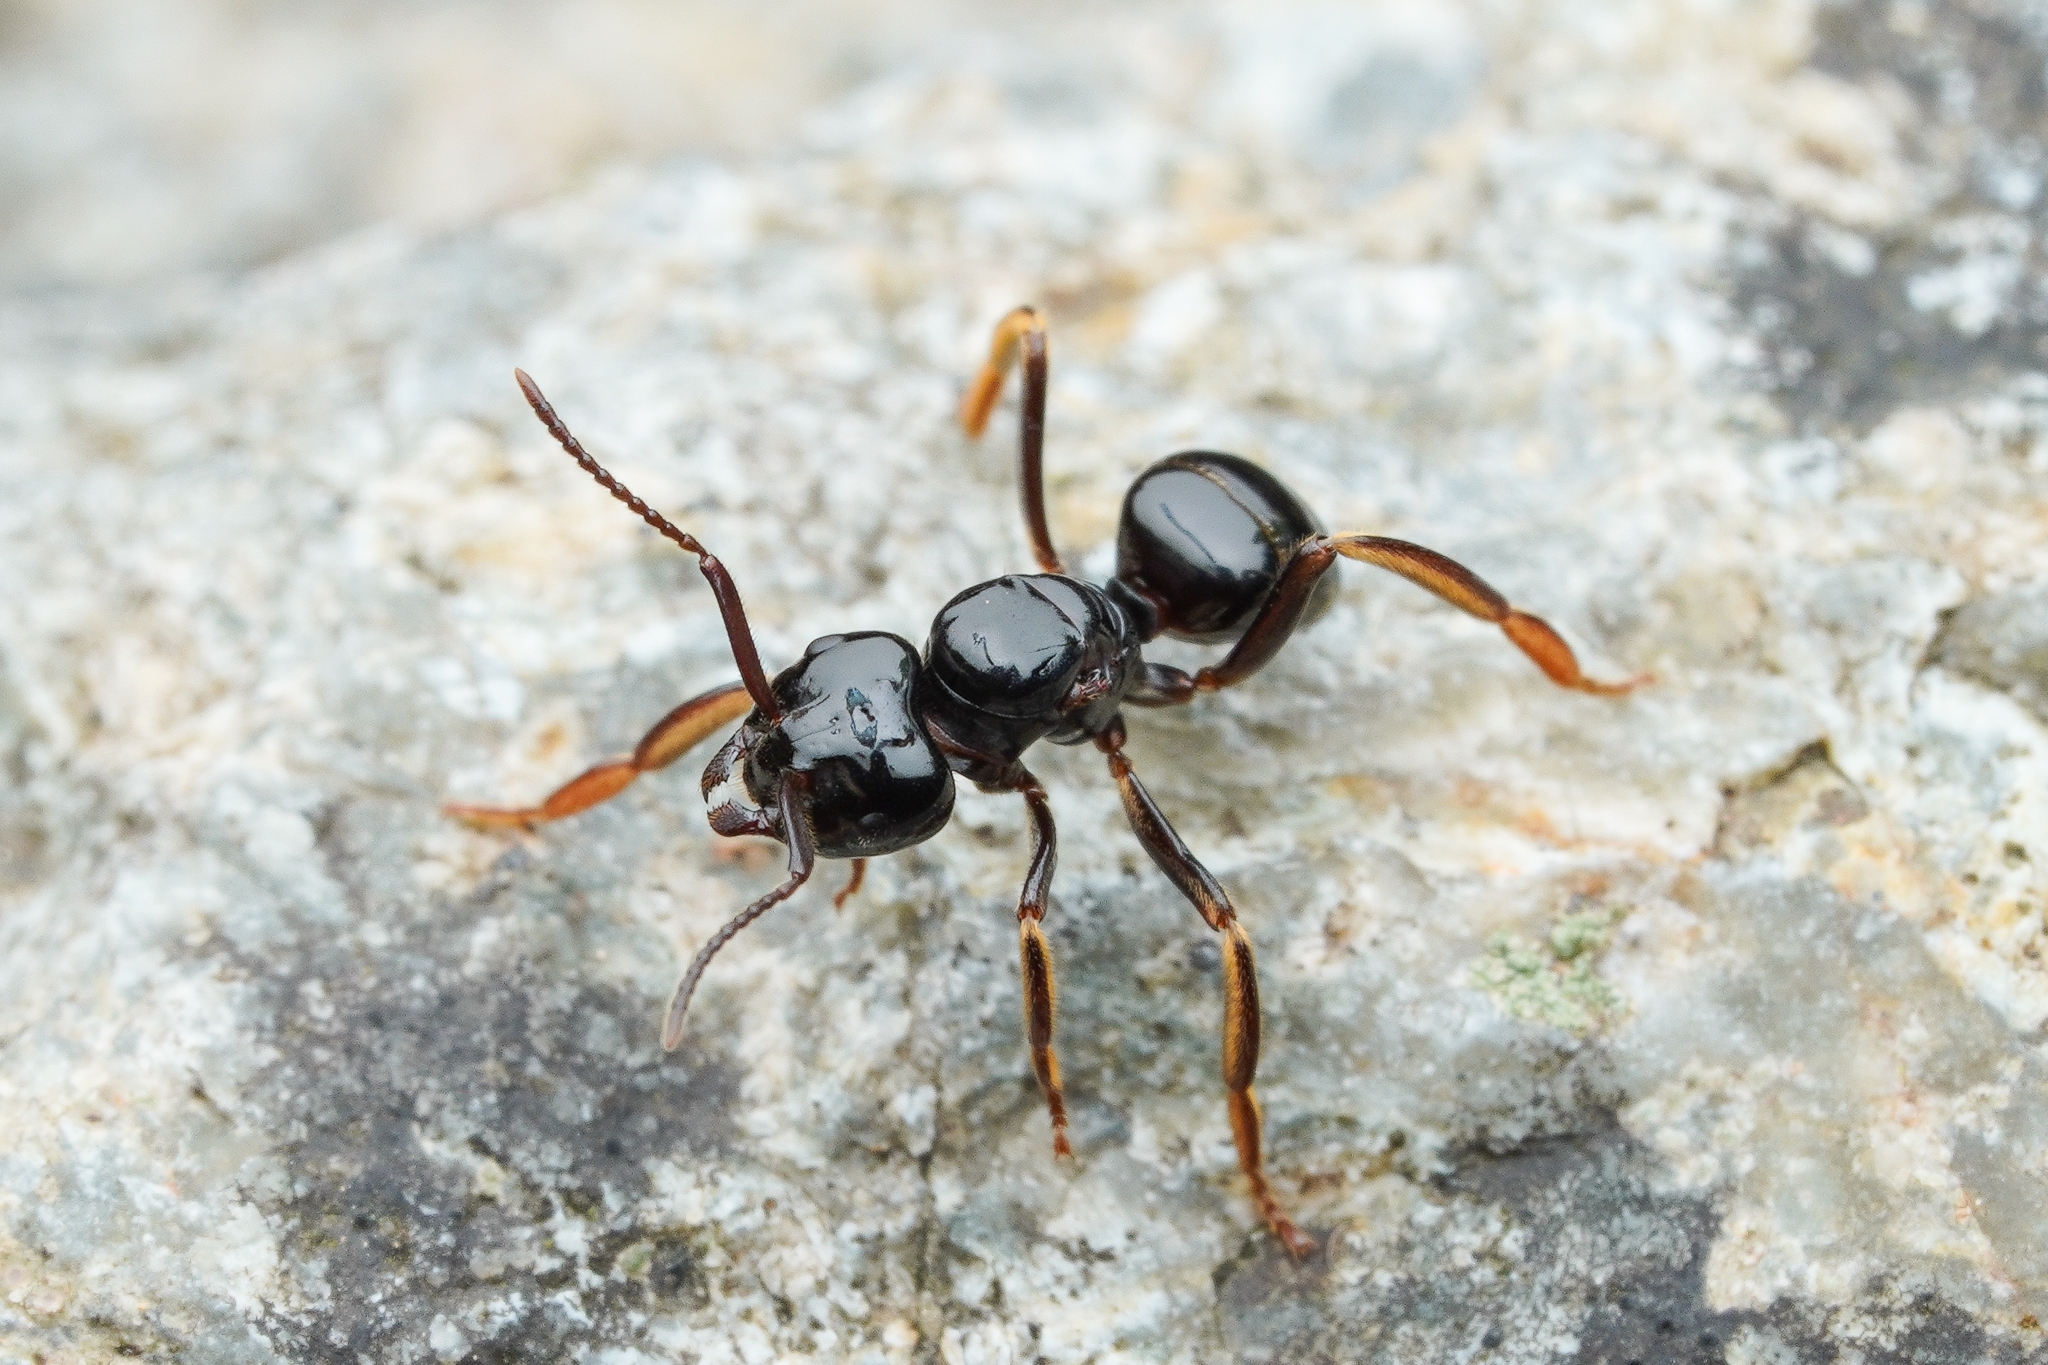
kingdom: Animalia
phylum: Arthropoda
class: Insecta
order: Hymenoptera
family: Formicidae
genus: Lasius
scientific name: Lasius spathepus
